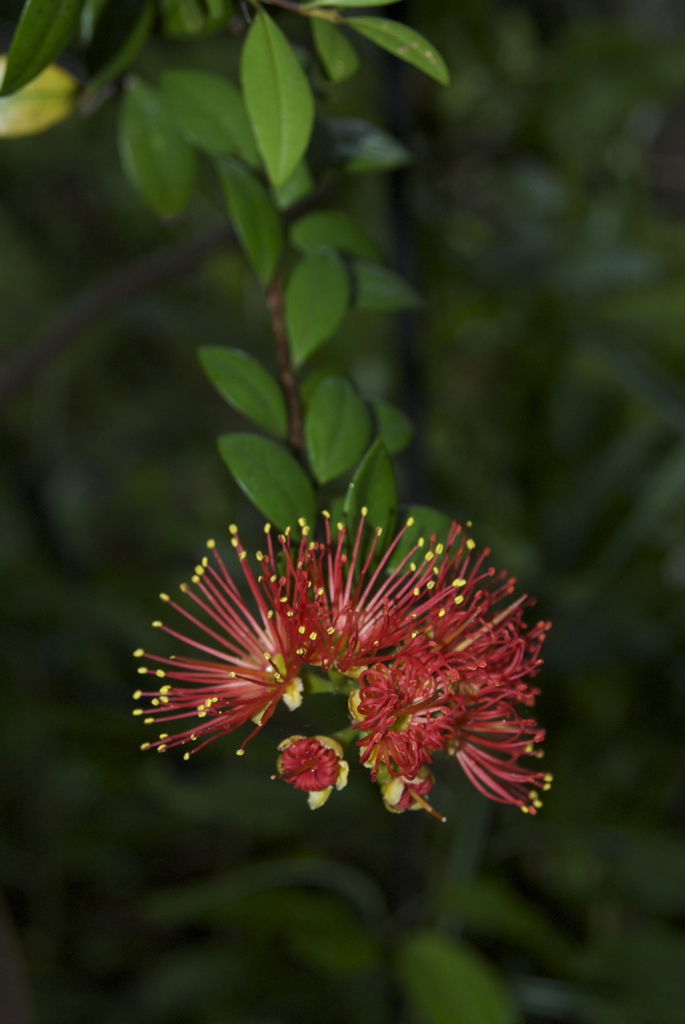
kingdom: Plantae
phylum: Tracheophyta
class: Magnoliopsida
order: Myrtales
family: Myrtaceae
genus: Metrosideros
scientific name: Metrosideros fulgens
